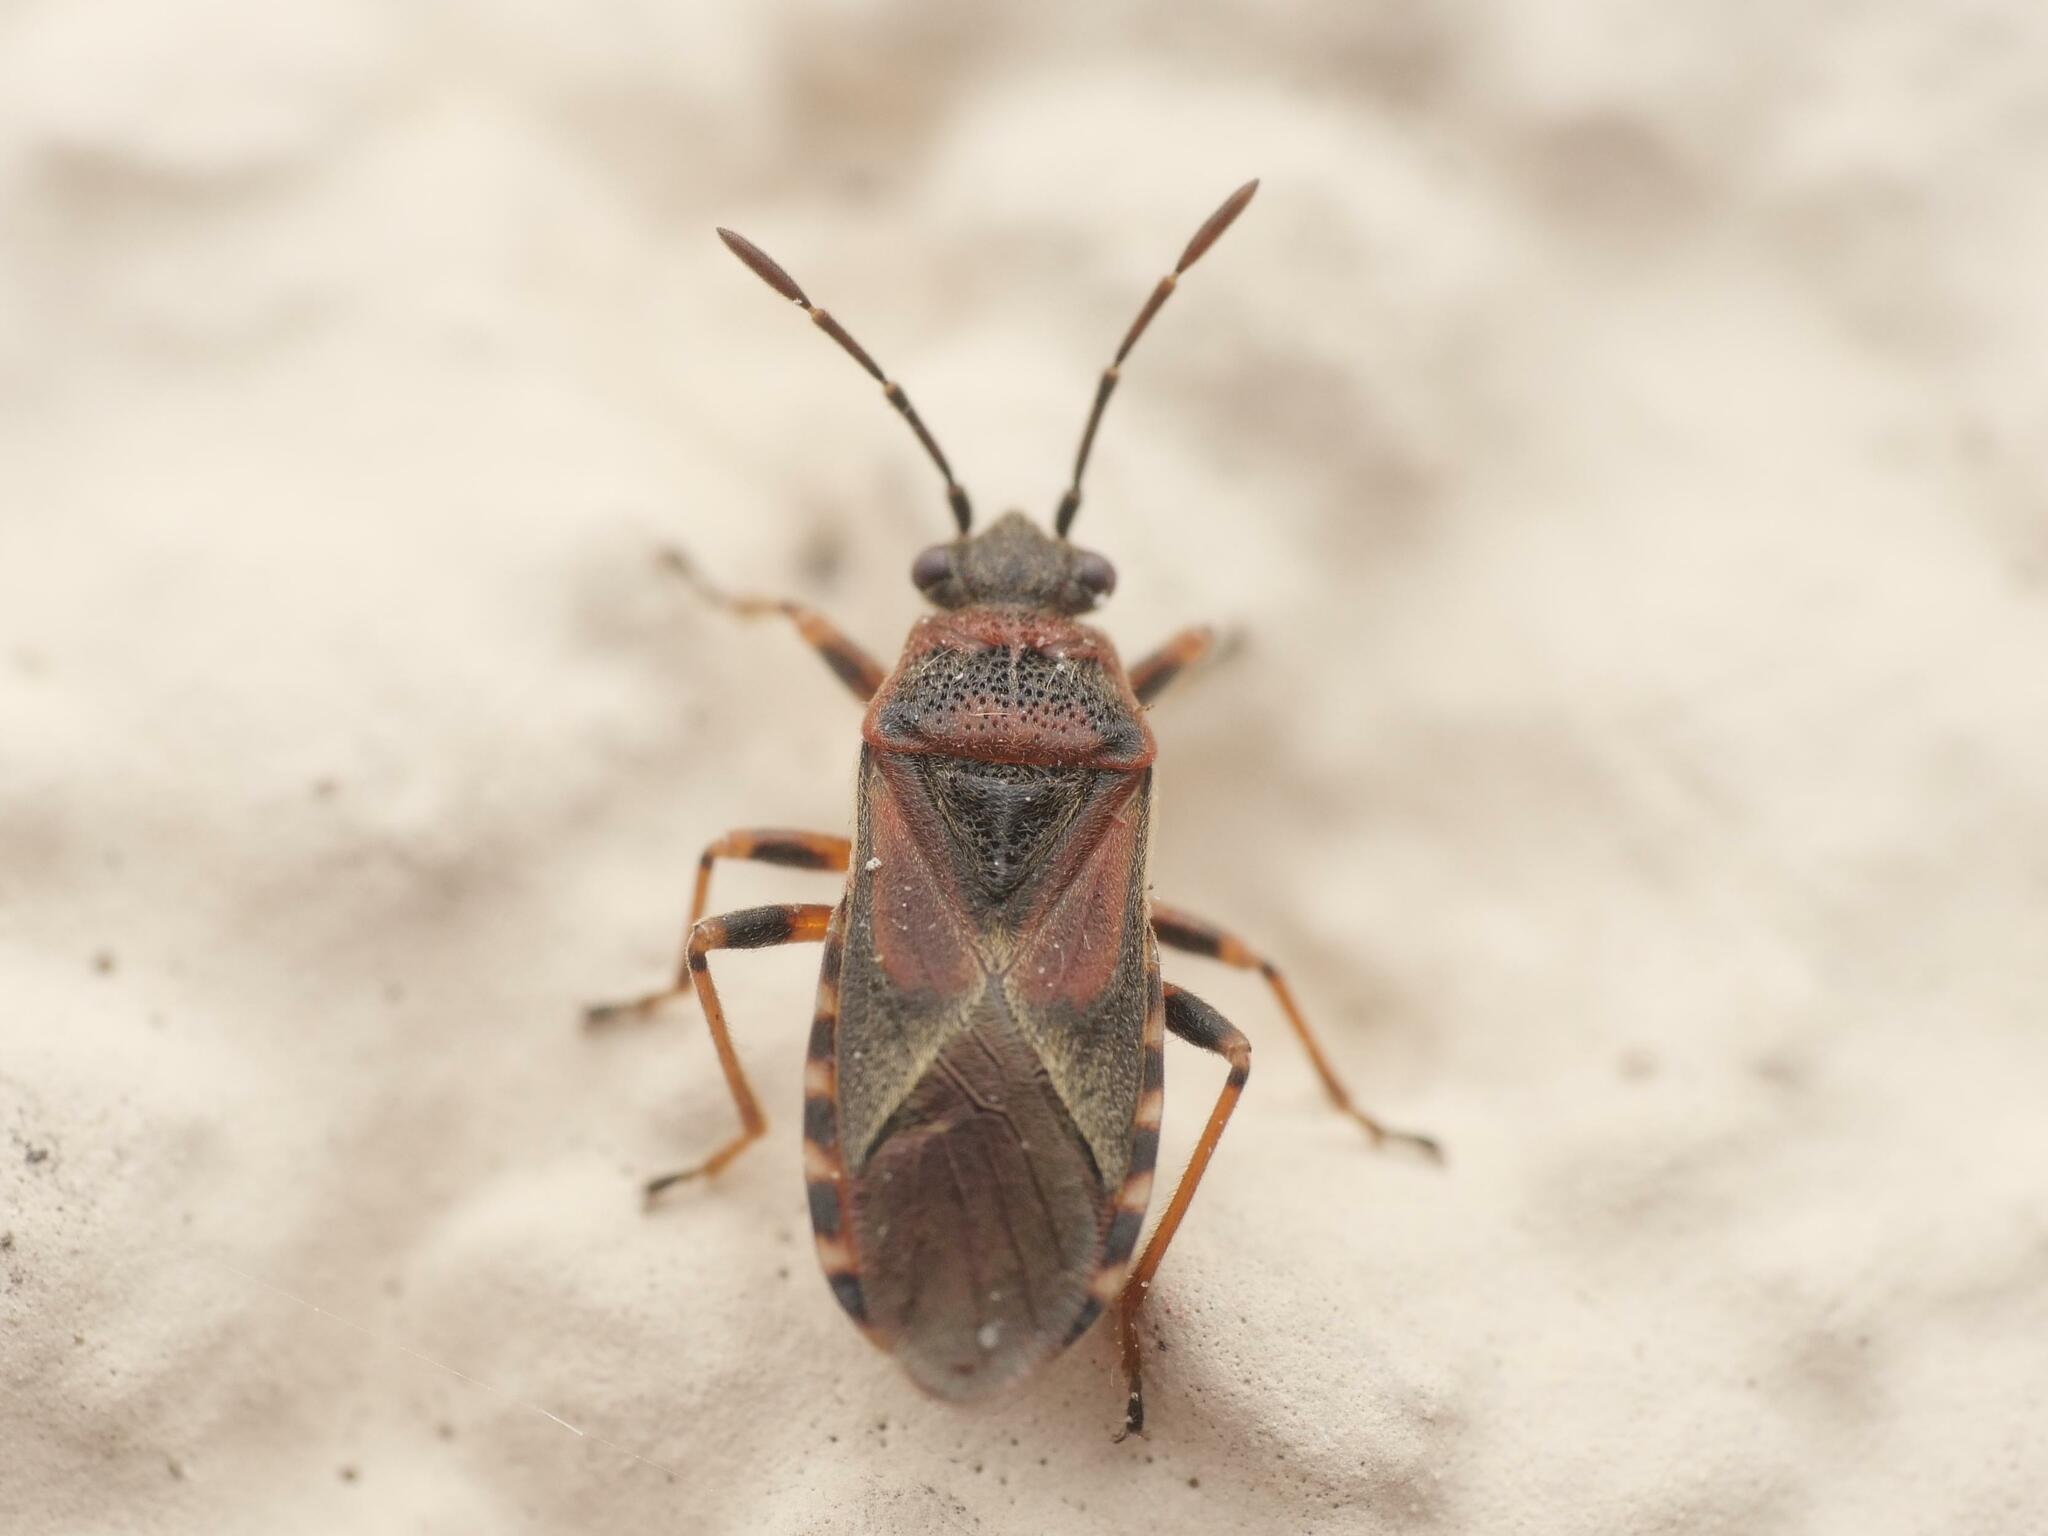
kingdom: Animalia
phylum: Arthropoda
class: Insecta
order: Hemiptera
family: Lygaeidae
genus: Arocatus
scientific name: Arocatus melanocephalus
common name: Lygaeid bug
